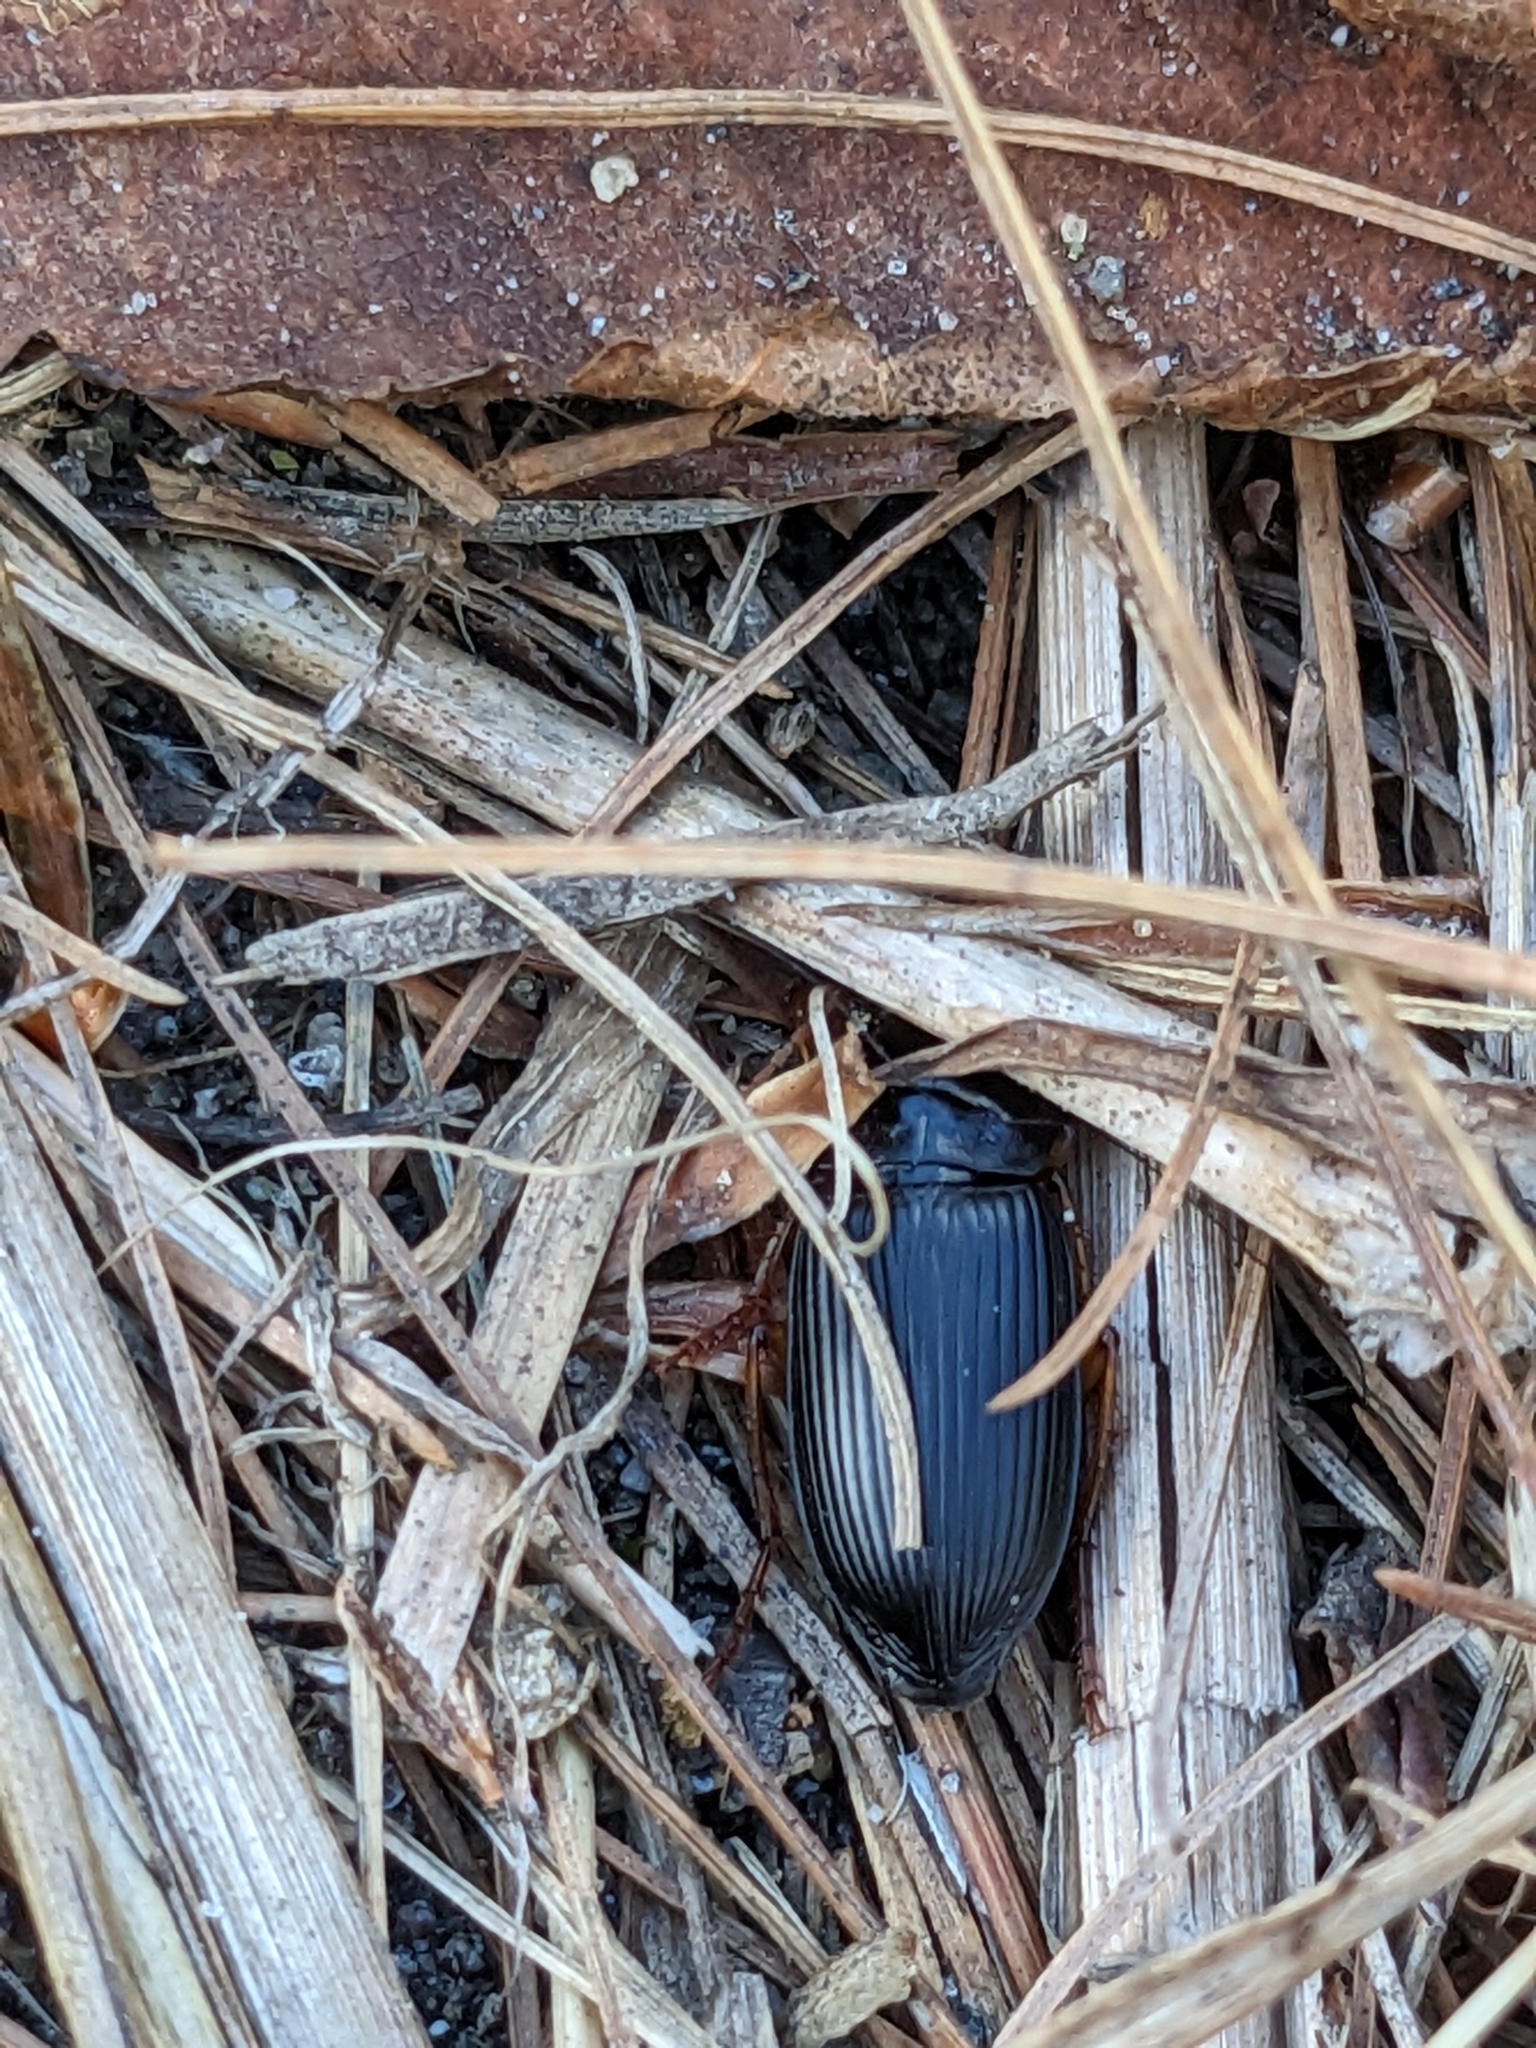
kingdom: Animalia
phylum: Arthropoda
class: Insecta
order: Coleoptera
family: Carabidae
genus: Harpalus
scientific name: Harpalus pensylvanicus
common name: Pennsylvania dingy ground beetle
